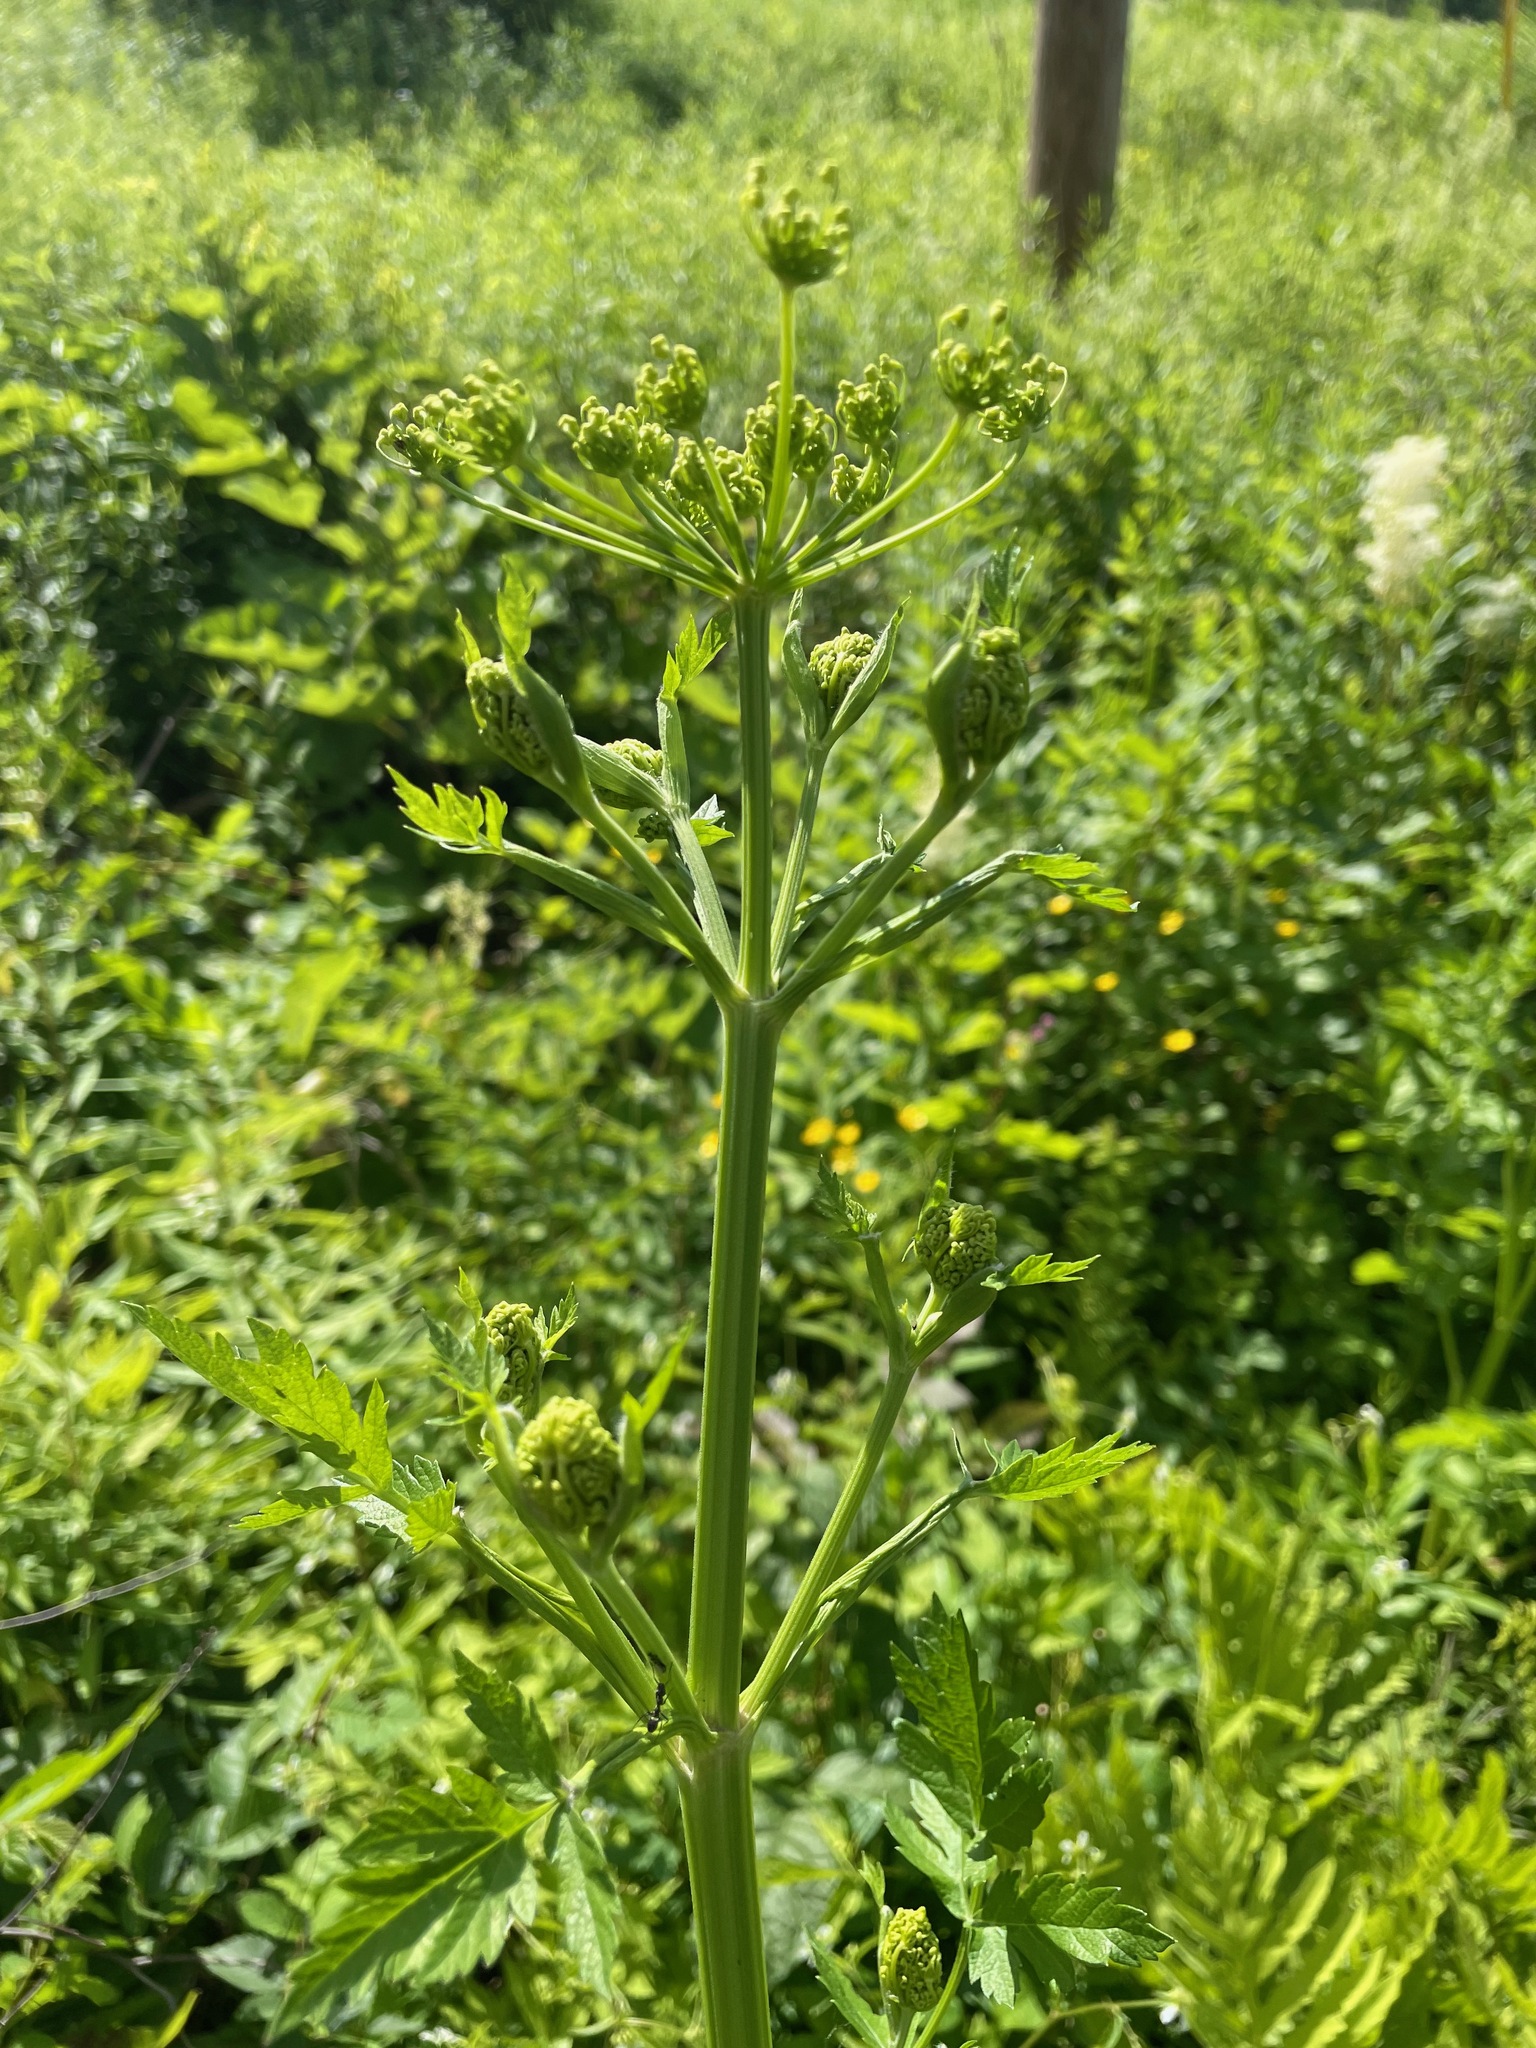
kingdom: Plantae
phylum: Tracheophyta
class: Magnoliopsida
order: Apiales
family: Apiaceae
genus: Pastinaca
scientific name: Pastinaca sativa
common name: Wild parsnip
